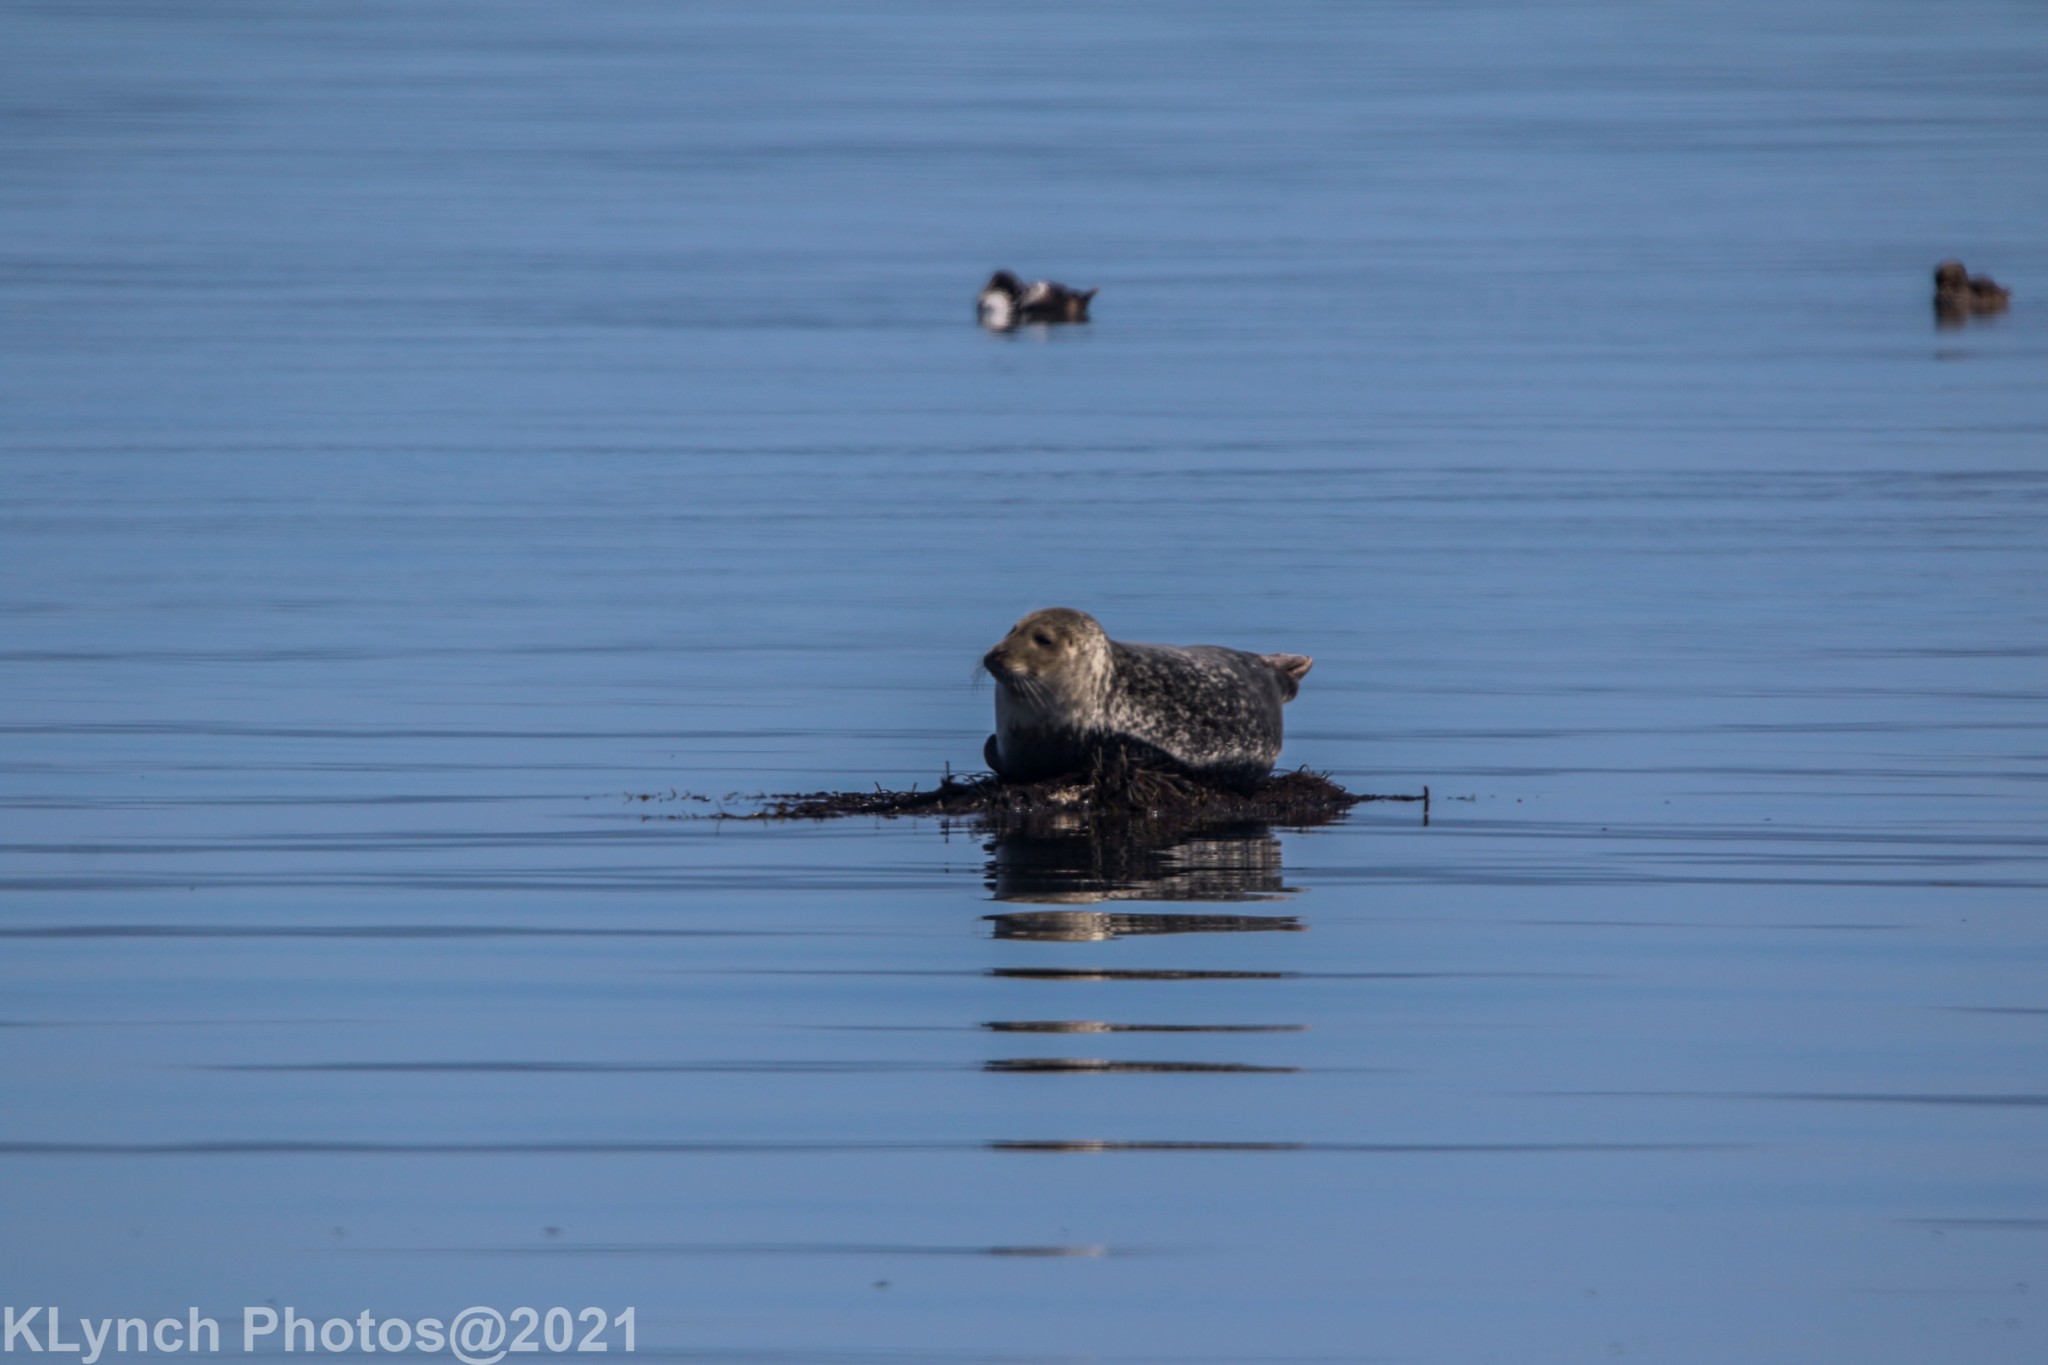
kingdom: Animalia
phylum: Chordata
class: Mammalia
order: Carnivora
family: Phocidae
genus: Phoca
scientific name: Phoca vitulina
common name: Harbor seal
